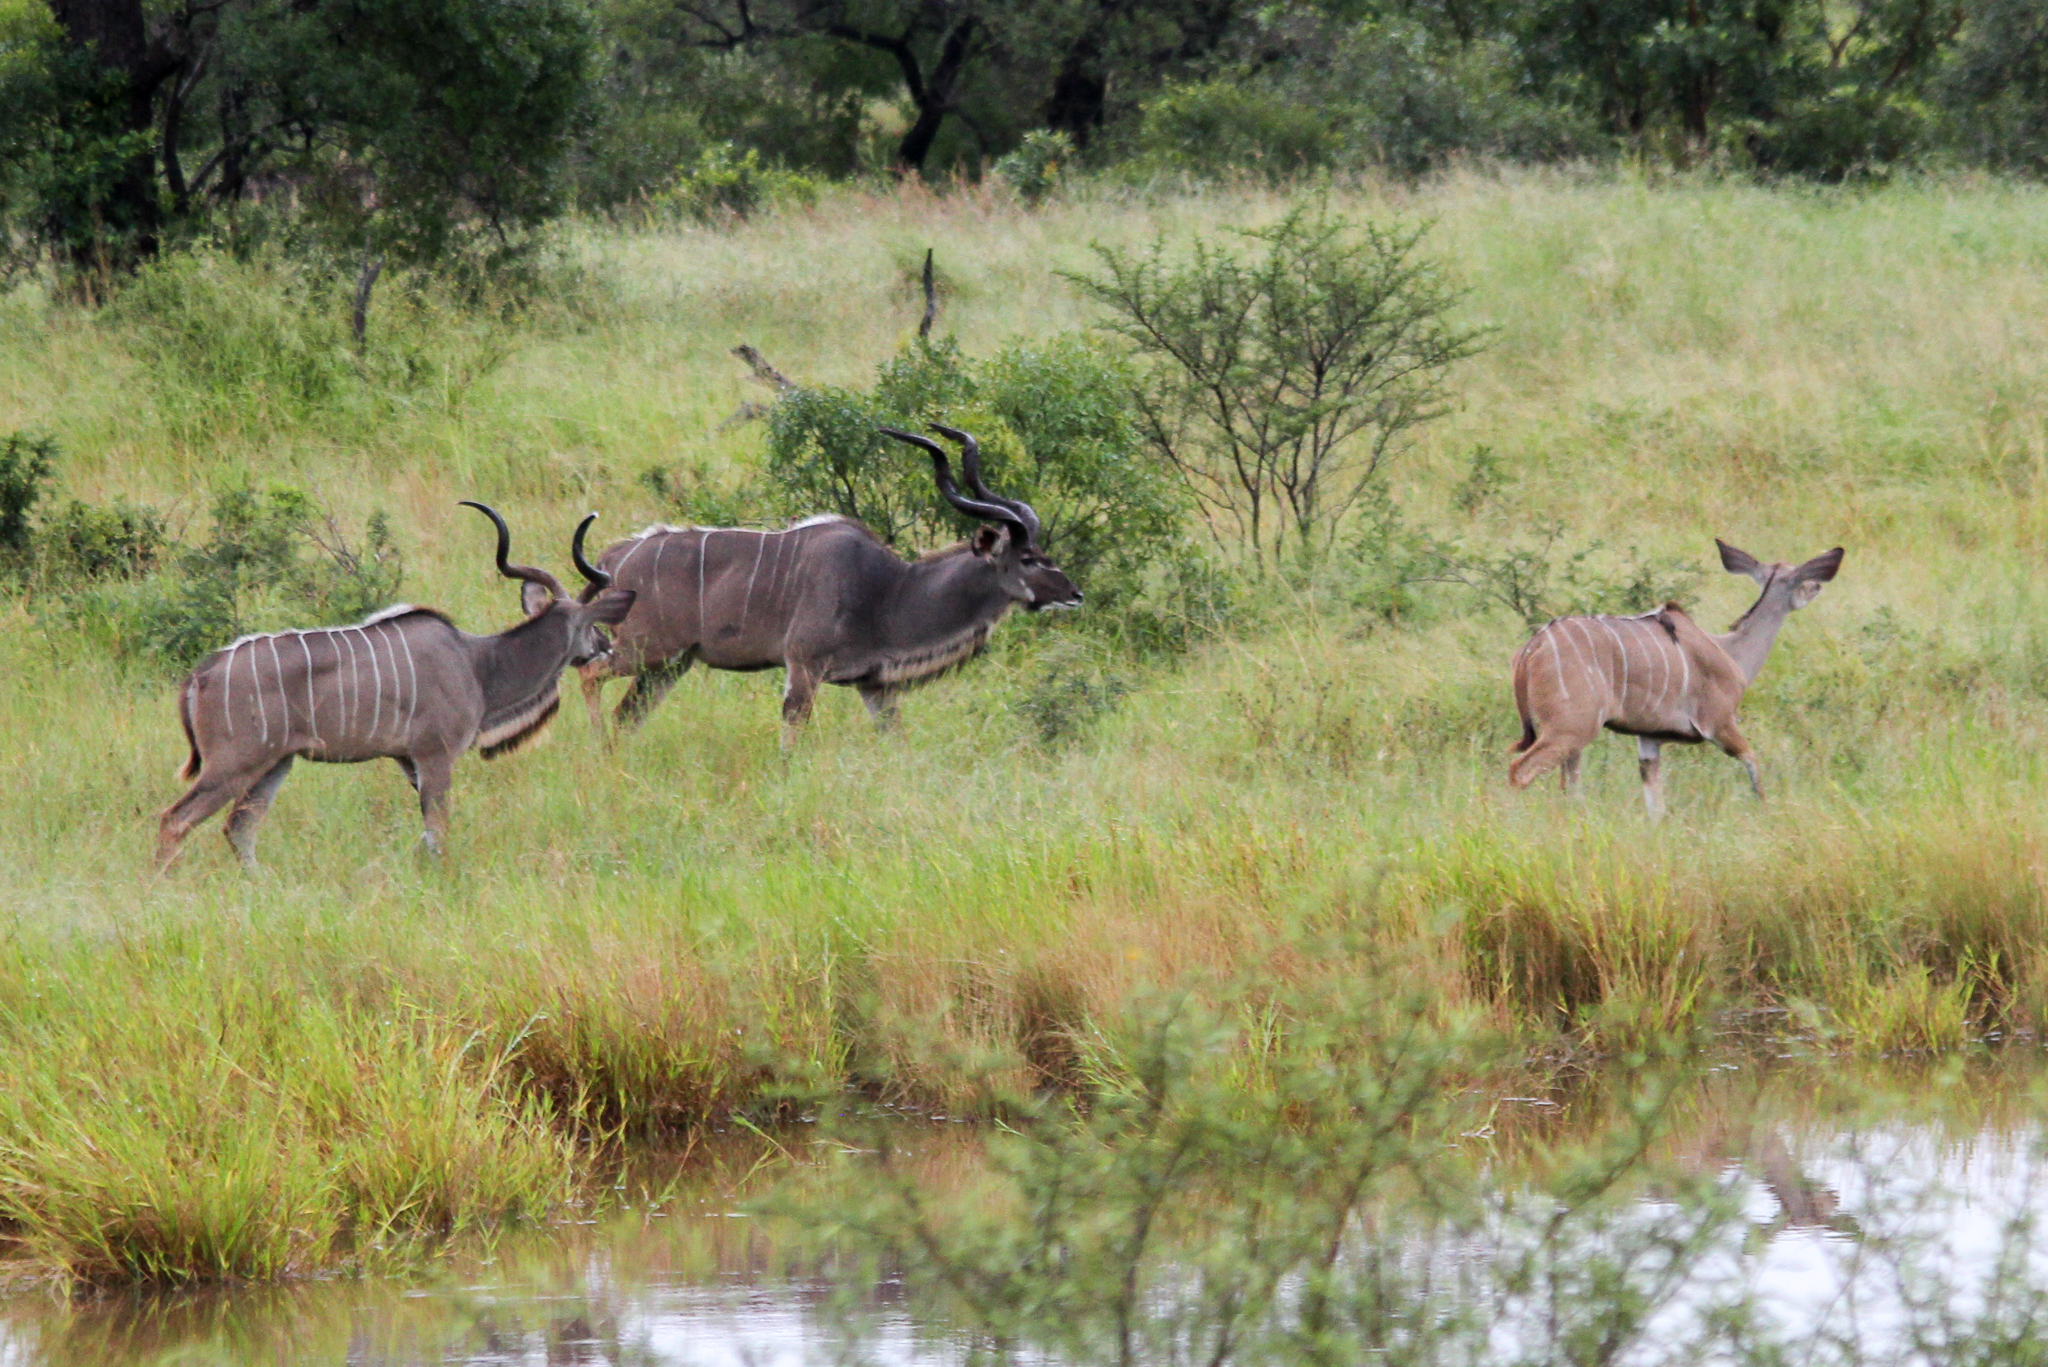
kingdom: Animalia
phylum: Chordata
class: Mammalia
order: Artiodactyla
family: Bovidae
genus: Tragelaphus
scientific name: Tragelaphus strepsiceros
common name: Greater kudu
